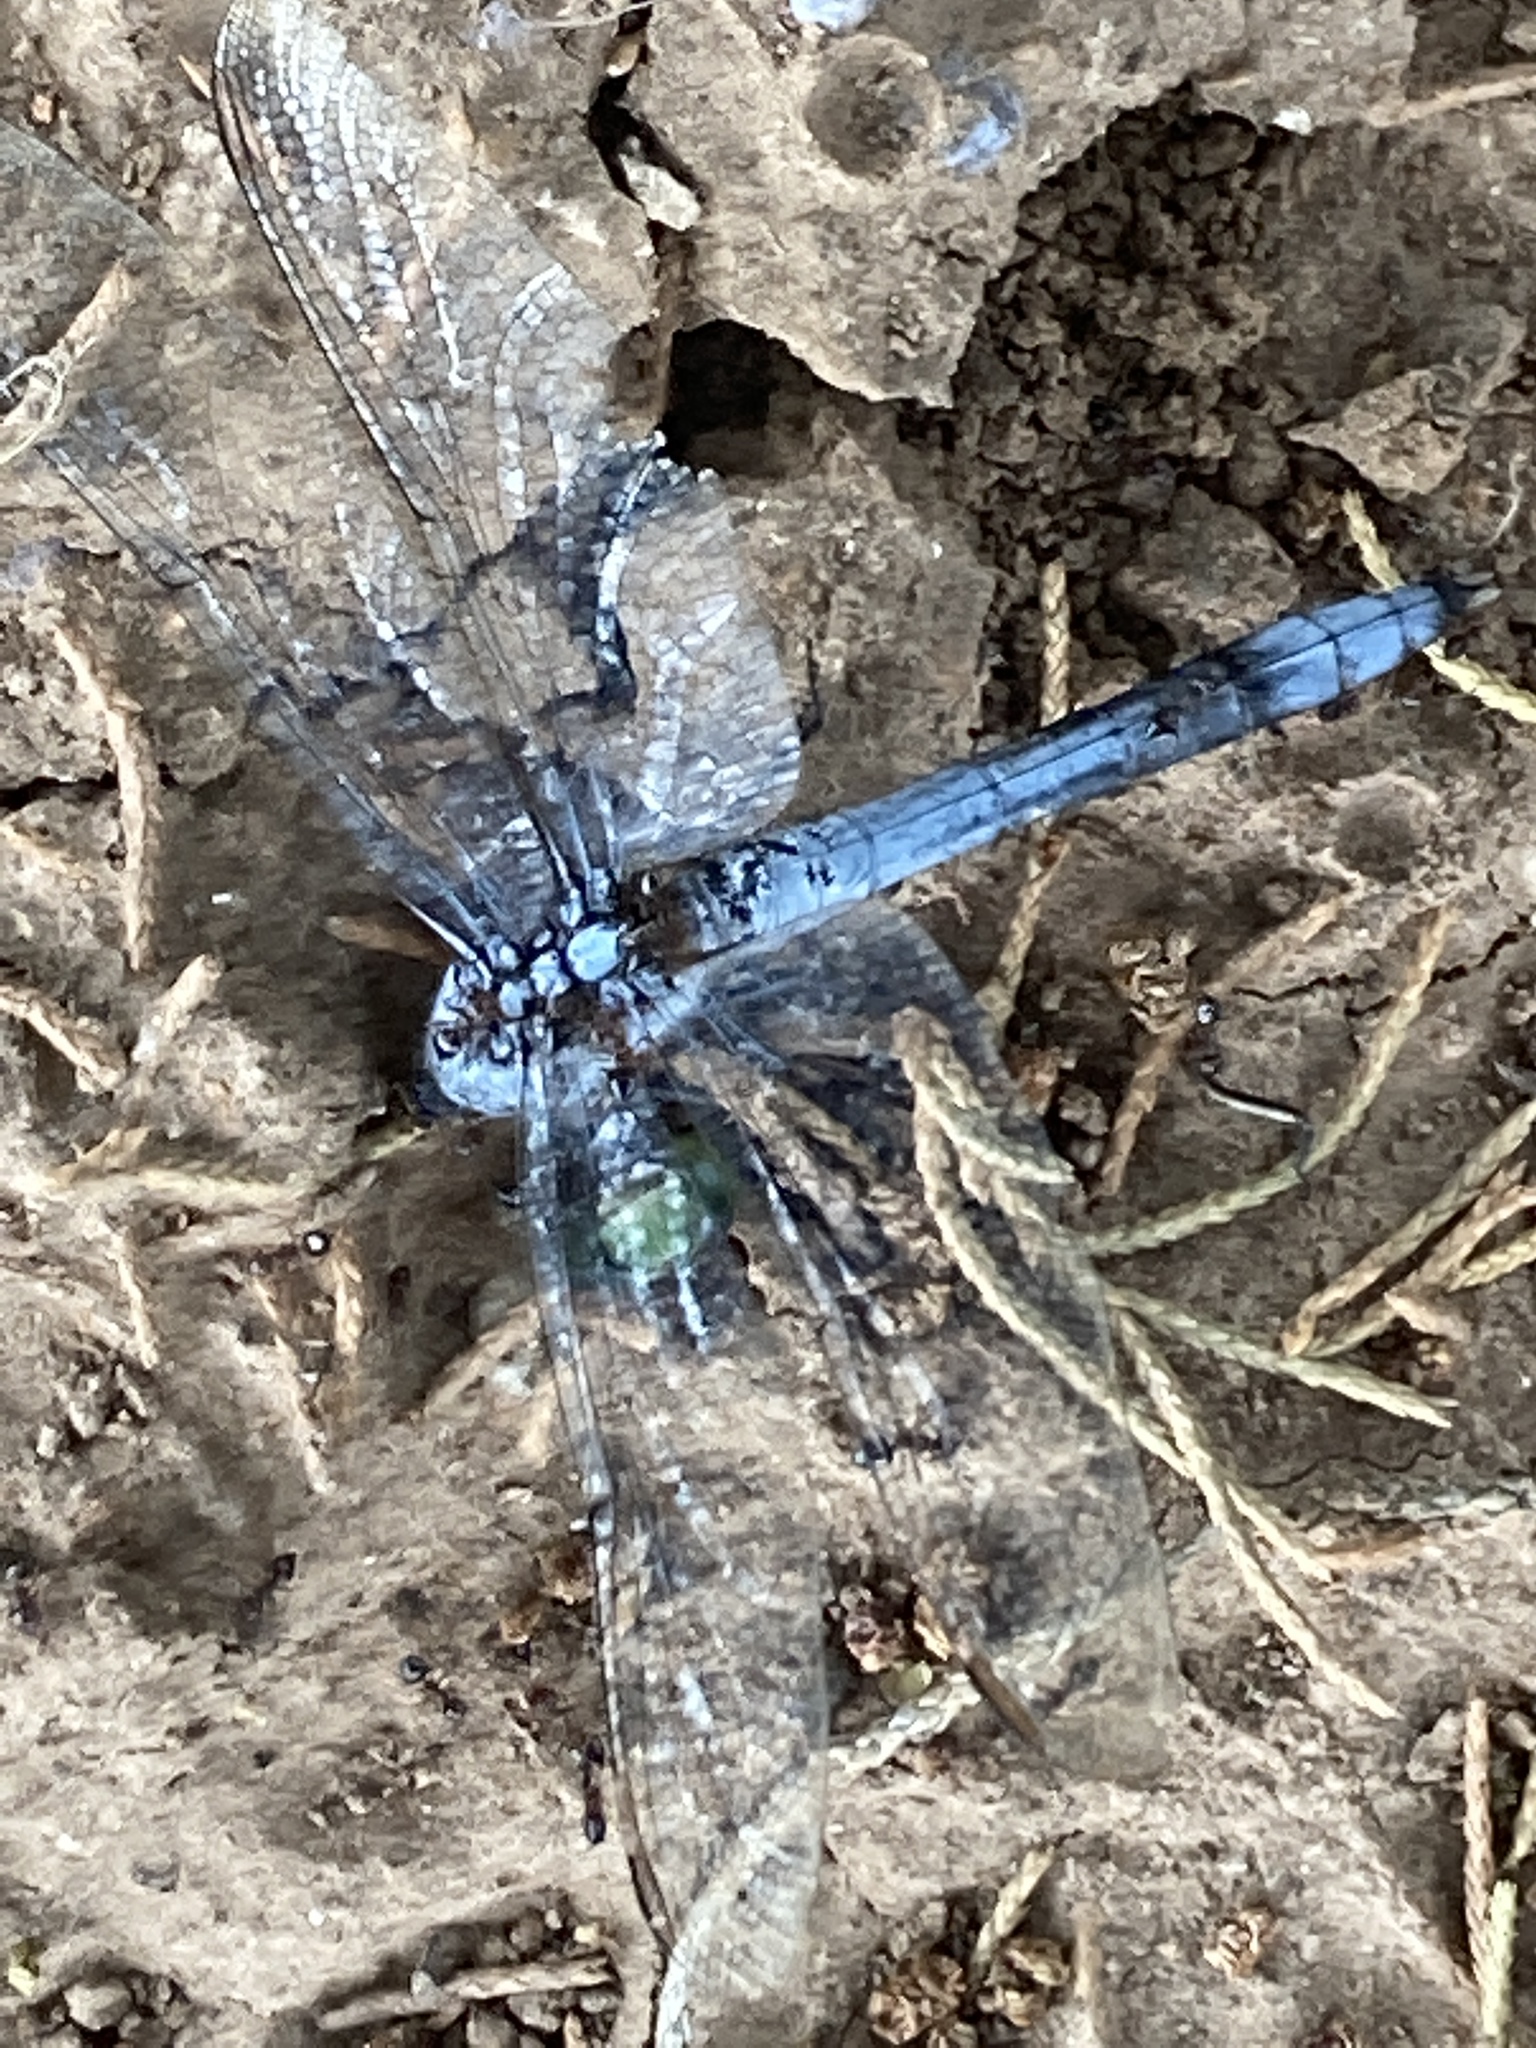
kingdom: Animalia
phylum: Arthropoda
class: Insecta
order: Odonata
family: Libellulidae
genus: Erythemis
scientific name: Erythemis simplicicollis
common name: Eastern pondhawk
